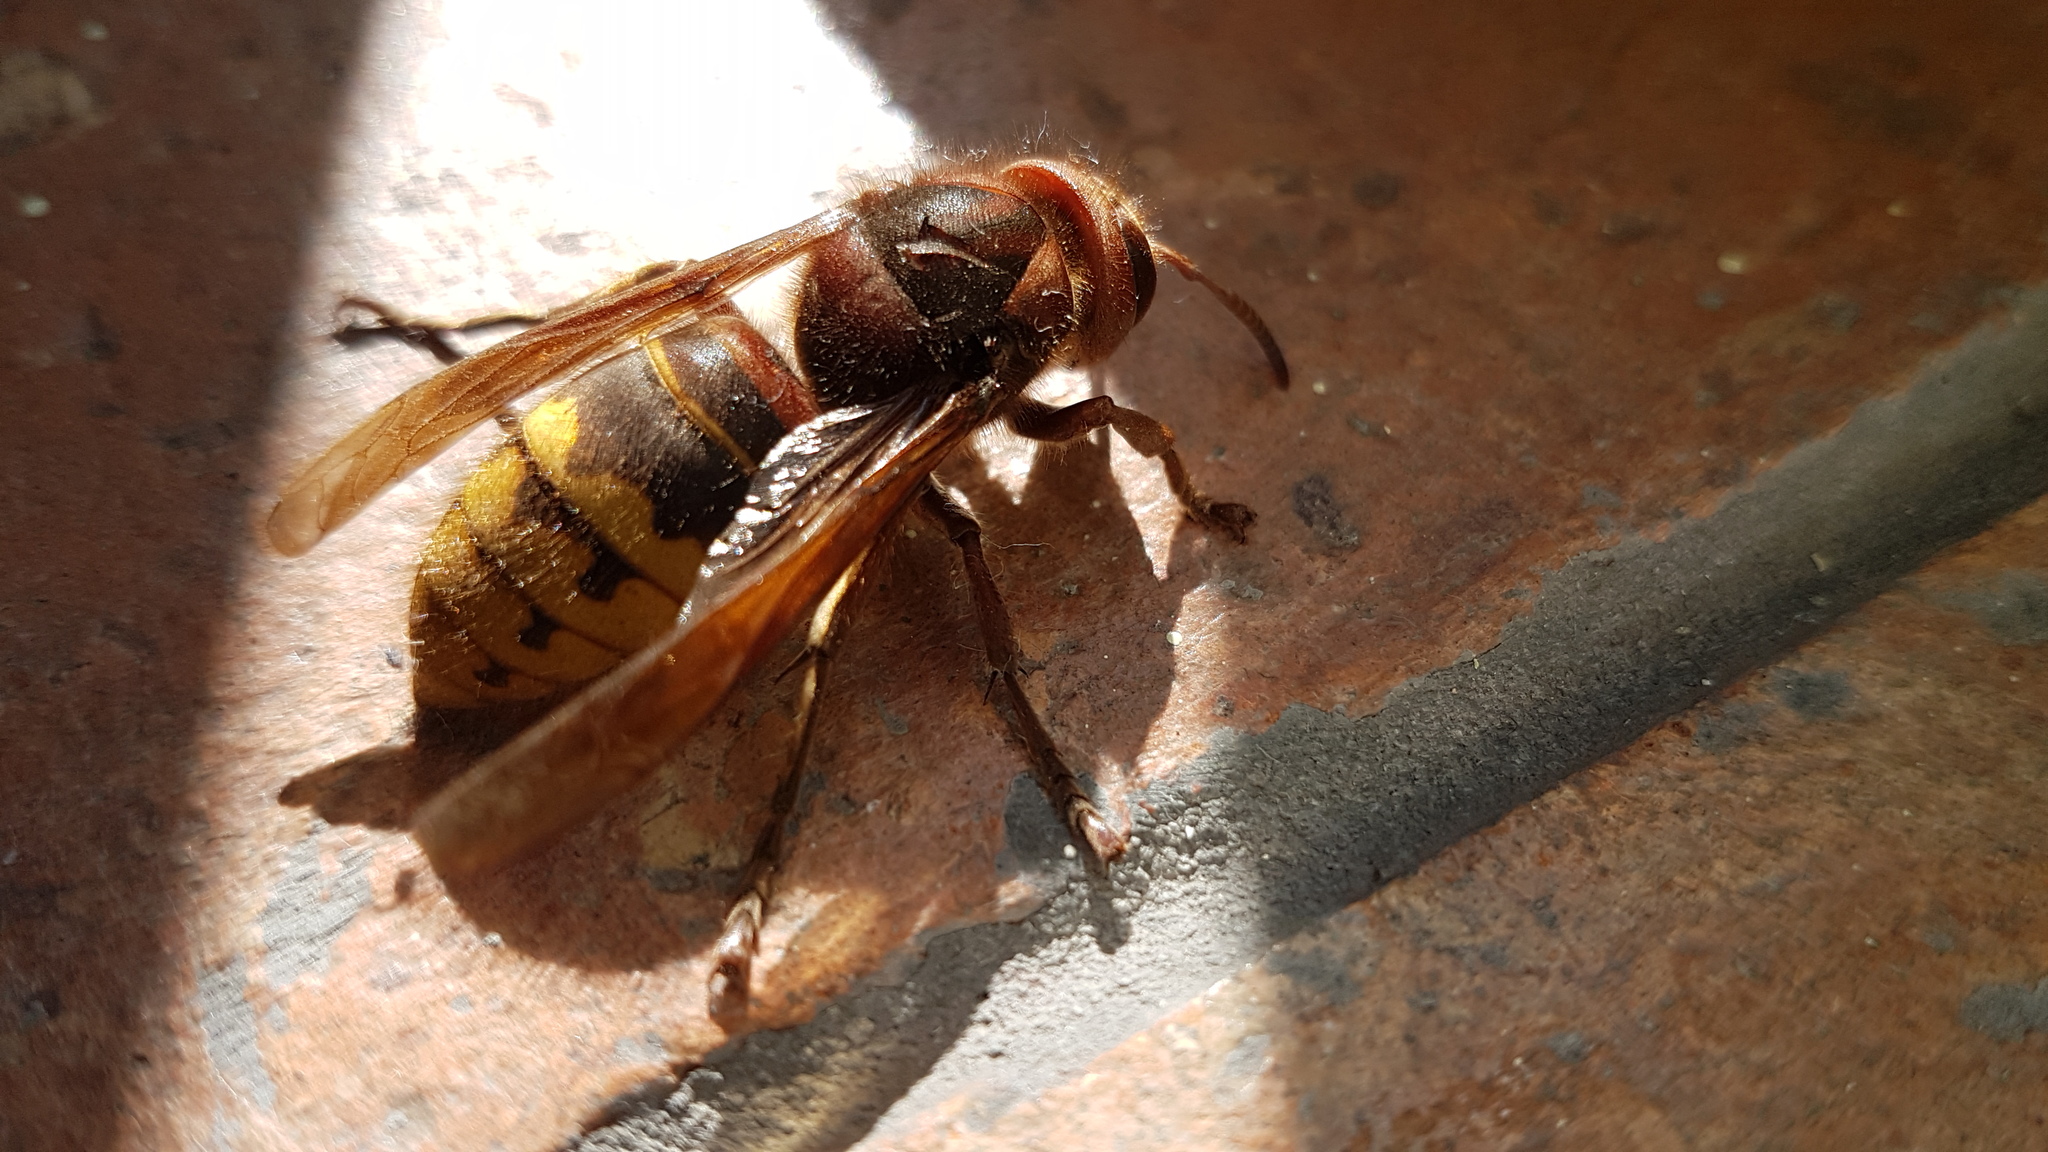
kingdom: Animalia
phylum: Arthropoda
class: Insecta
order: Hymenoptera
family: Vespidae
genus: Vespa
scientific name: Vespa crabro
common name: Hornet
